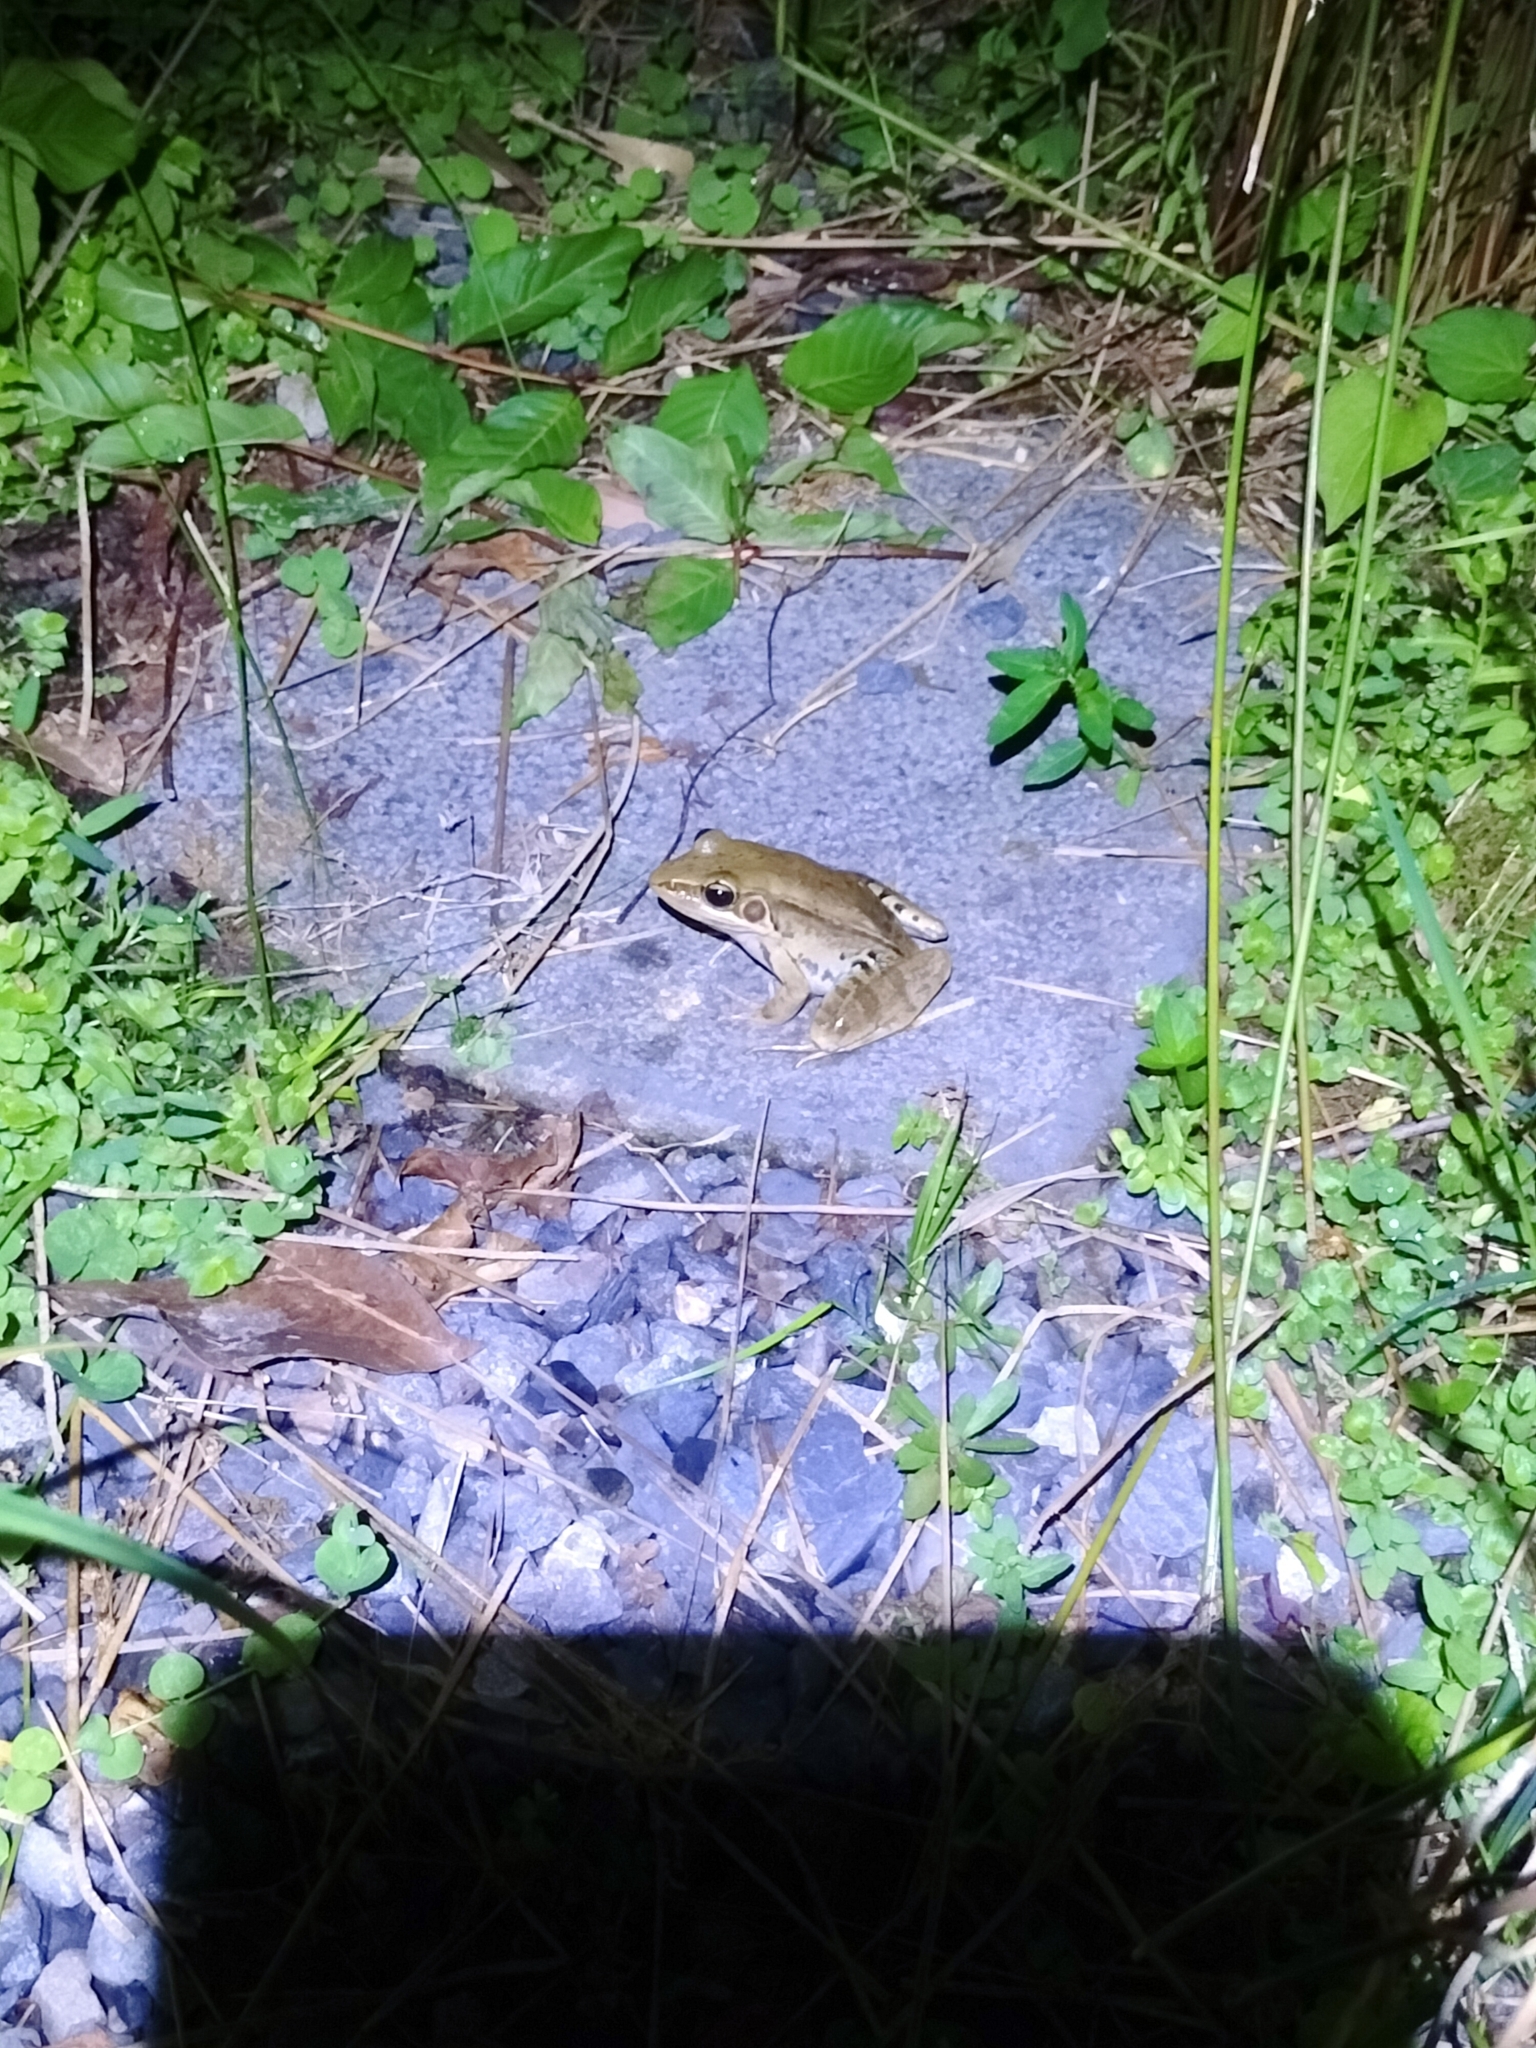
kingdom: Animalia
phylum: Chordata
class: Amphibia
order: Anura
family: Ranidae
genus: Sylvirana
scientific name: Sylvirana guentheri
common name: Guenther's amoy frog
